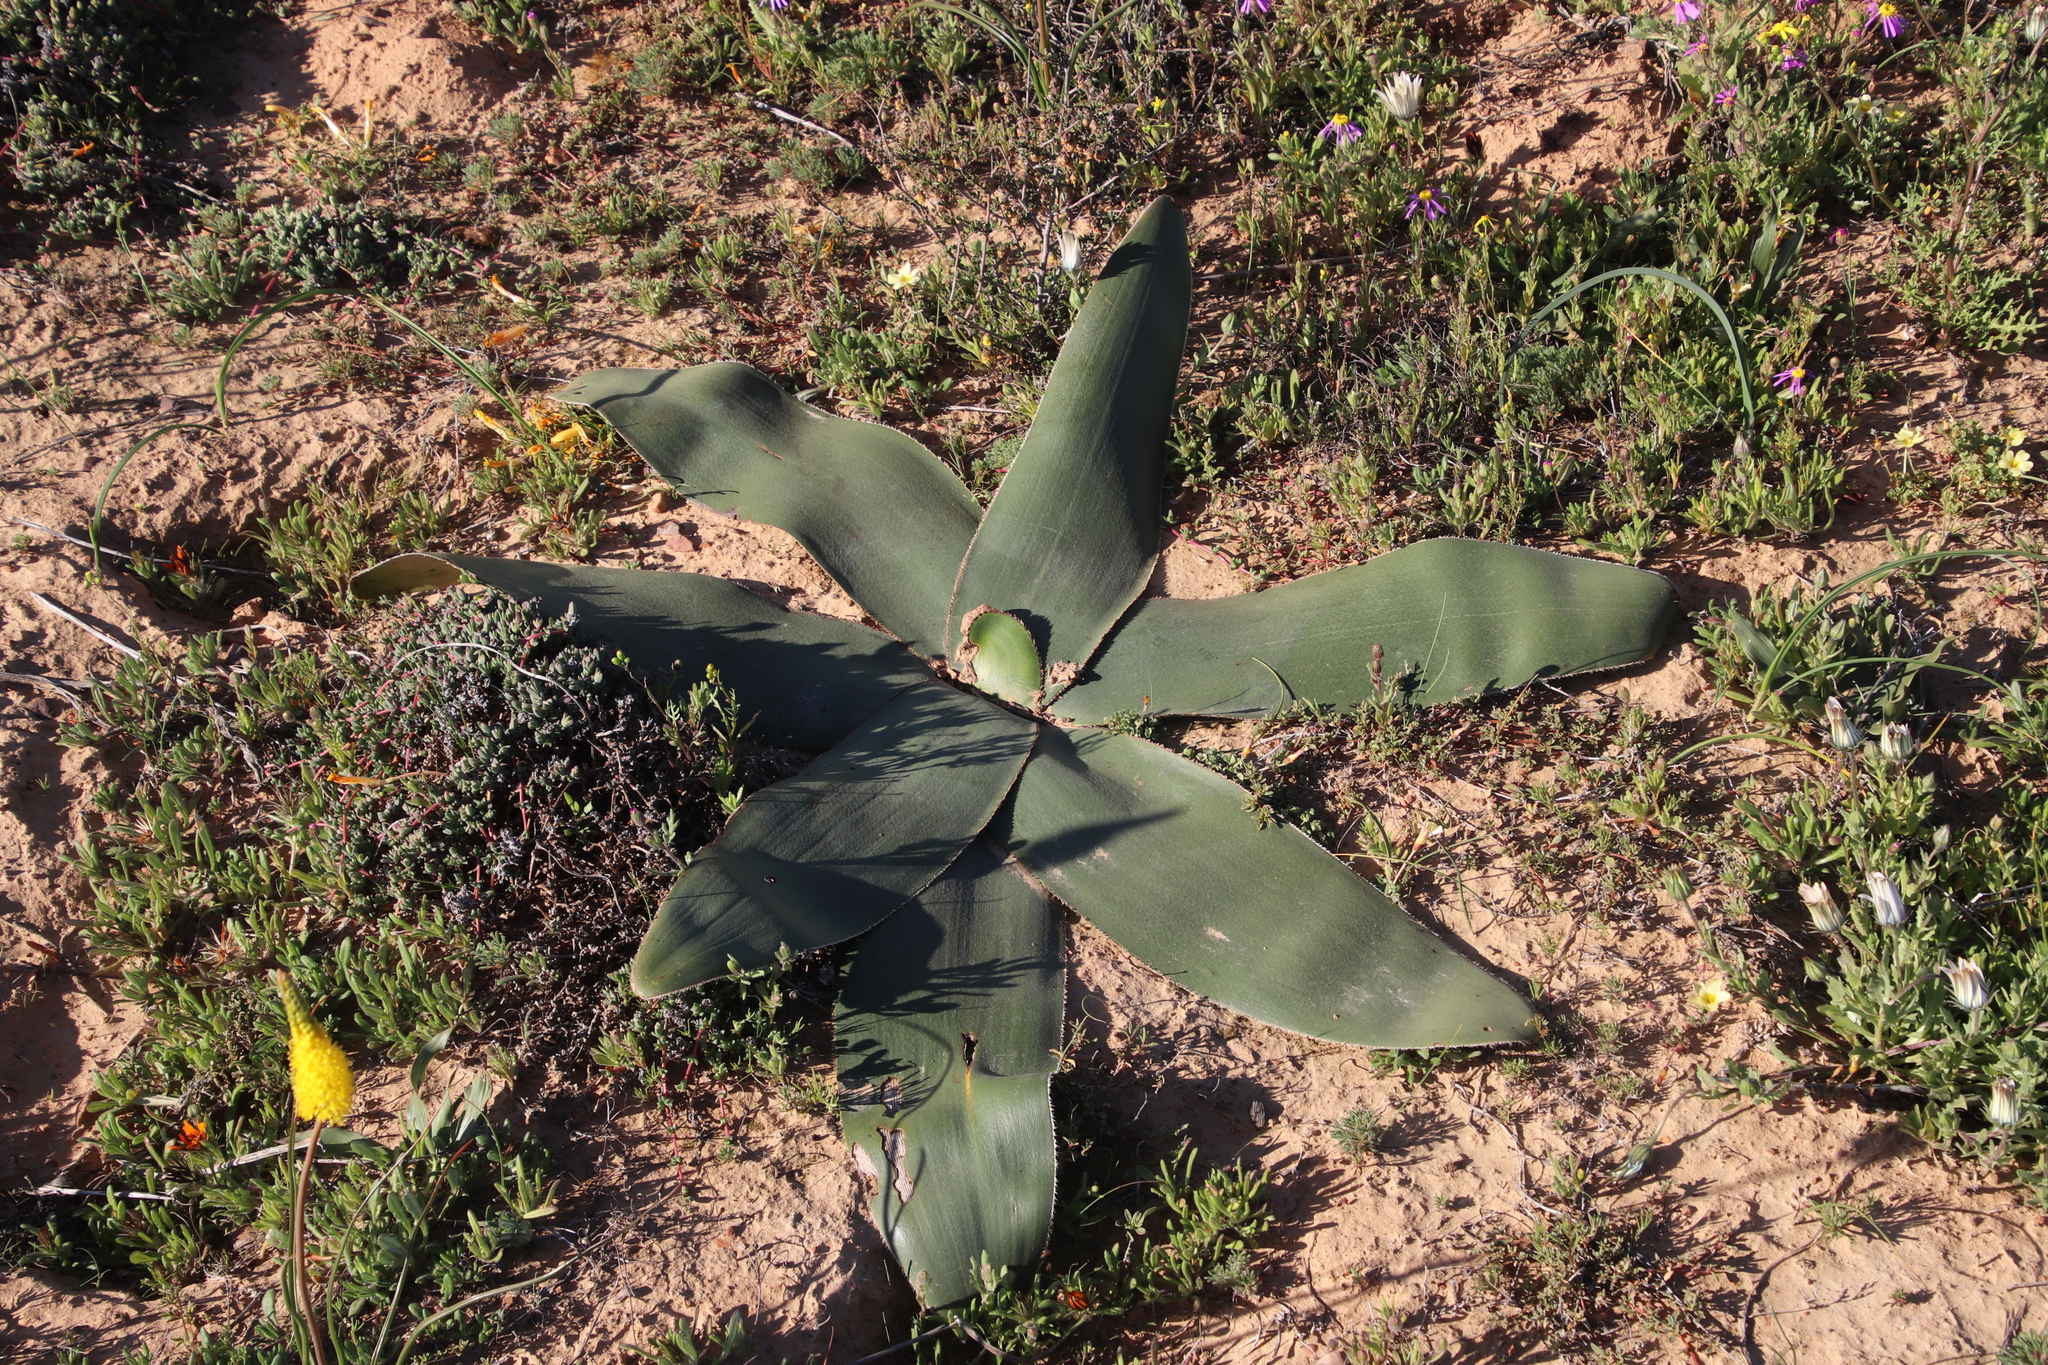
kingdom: Plantae
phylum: Tracheophyta
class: Liliopsida
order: Asparagales
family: Amaryllidaceae
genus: Crossyne
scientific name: Crossyne flava
